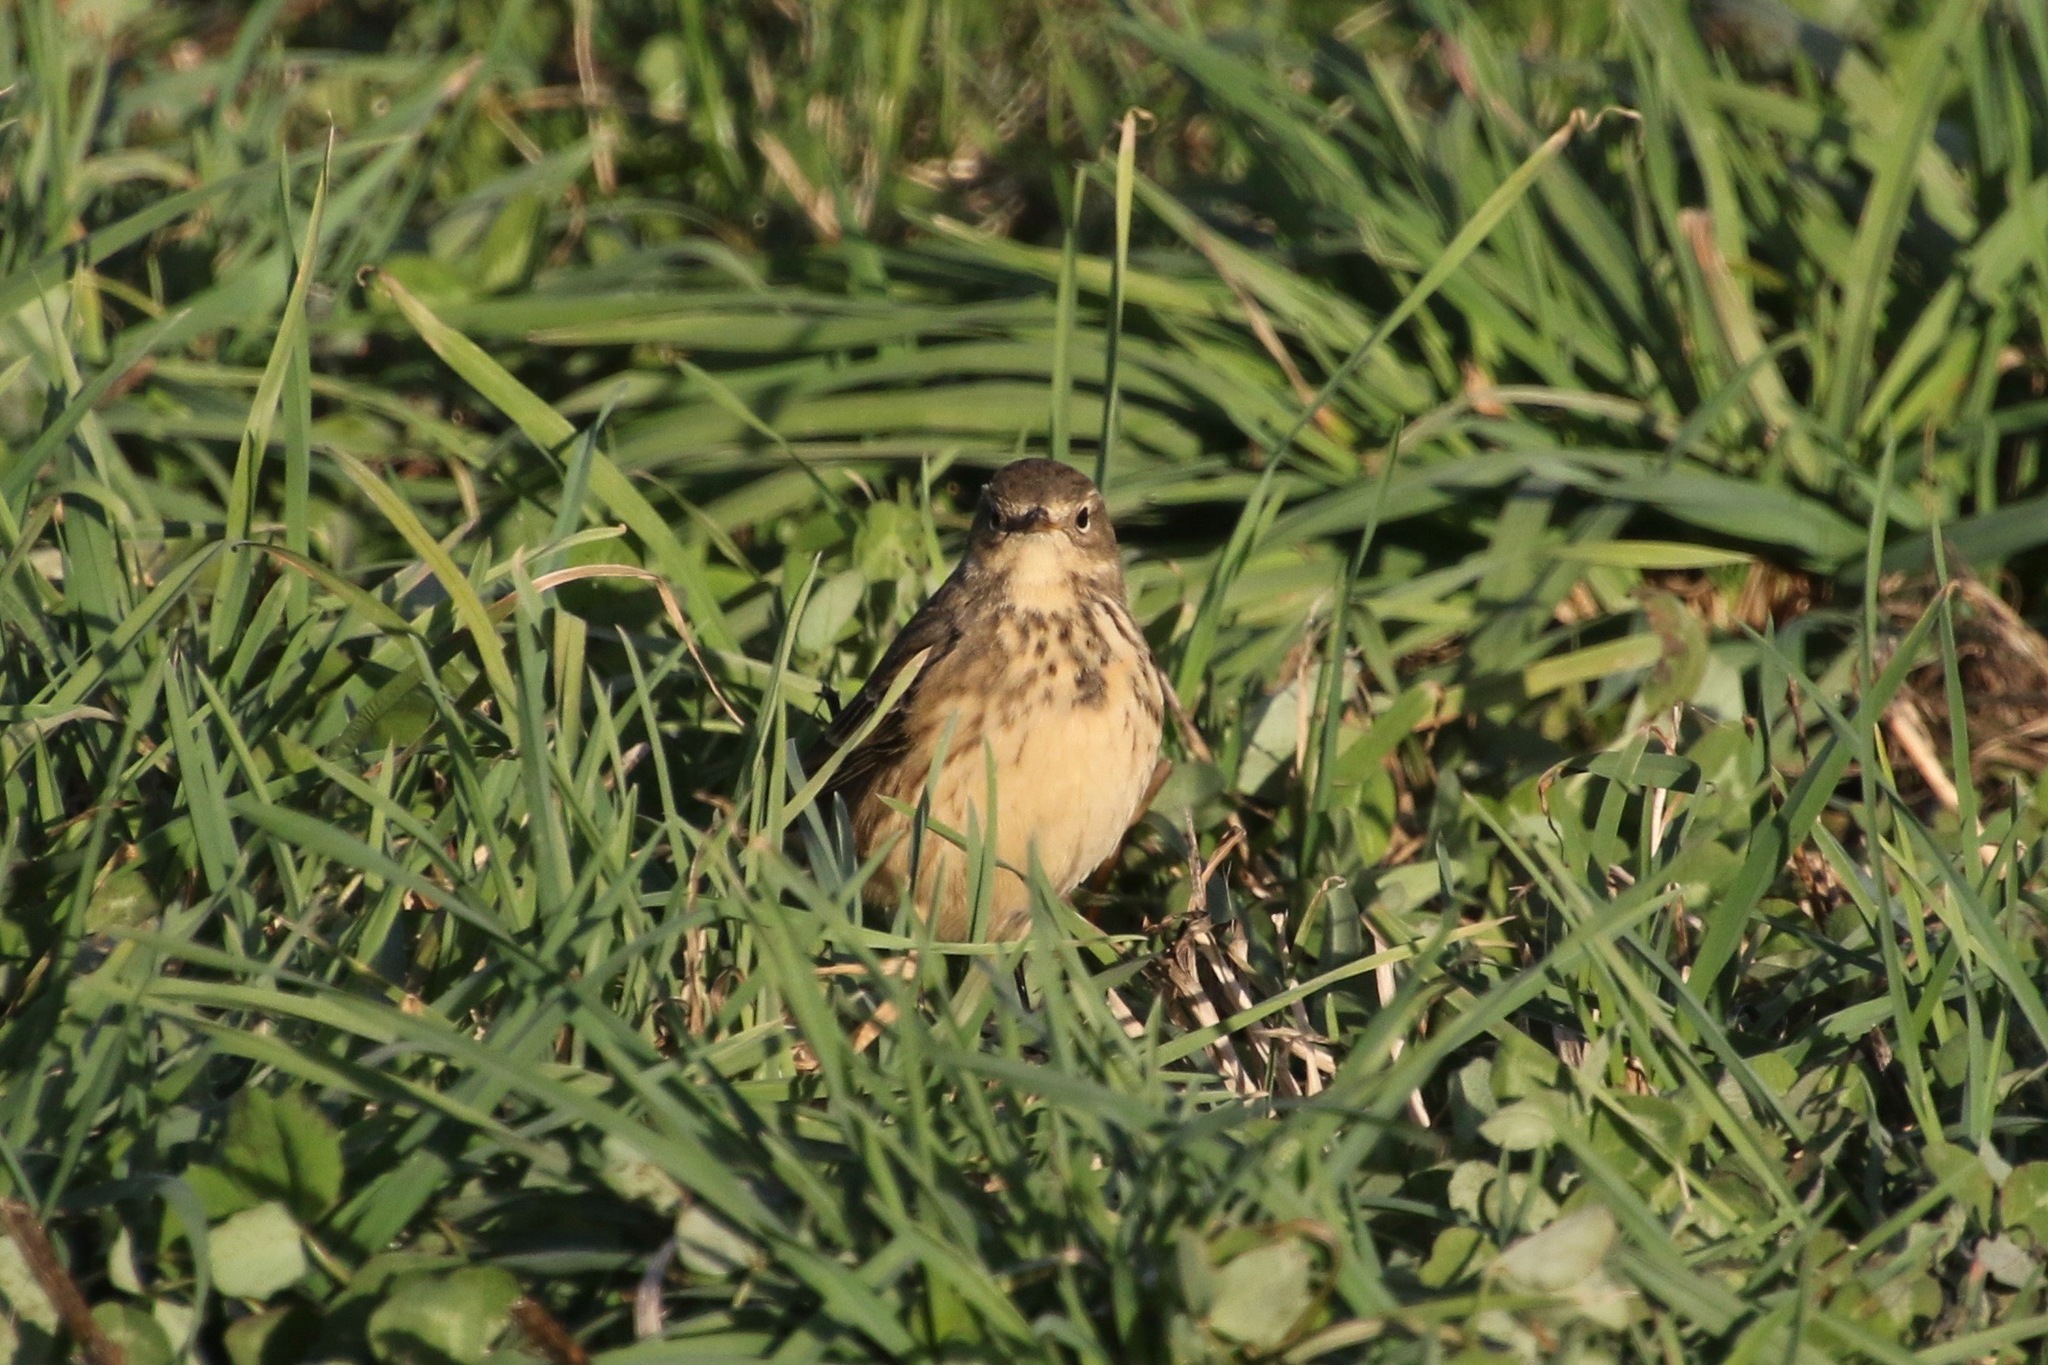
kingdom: Animalia
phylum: Chordata
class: Aves
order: Passeriformes
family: Motacillidae
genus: Anthus
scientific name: Anthus rubescens
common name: Buff-bellied pipit
